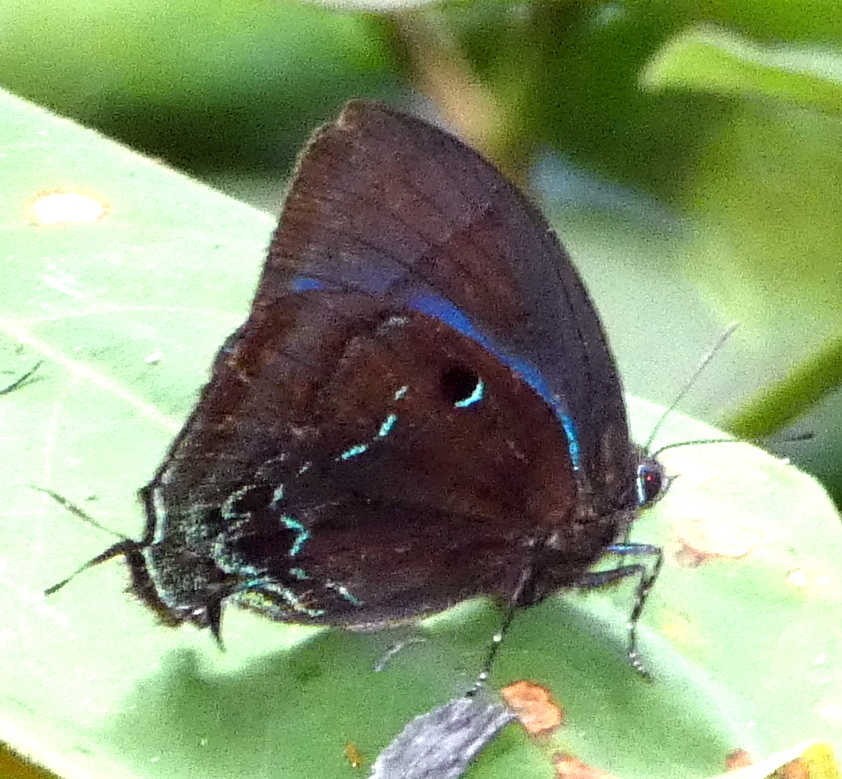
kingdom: Animalia
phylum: Arthropoda
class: Insecta
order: Lepidoptera
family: Lycaenidae
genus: Denivia
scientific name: Denivia hemon
